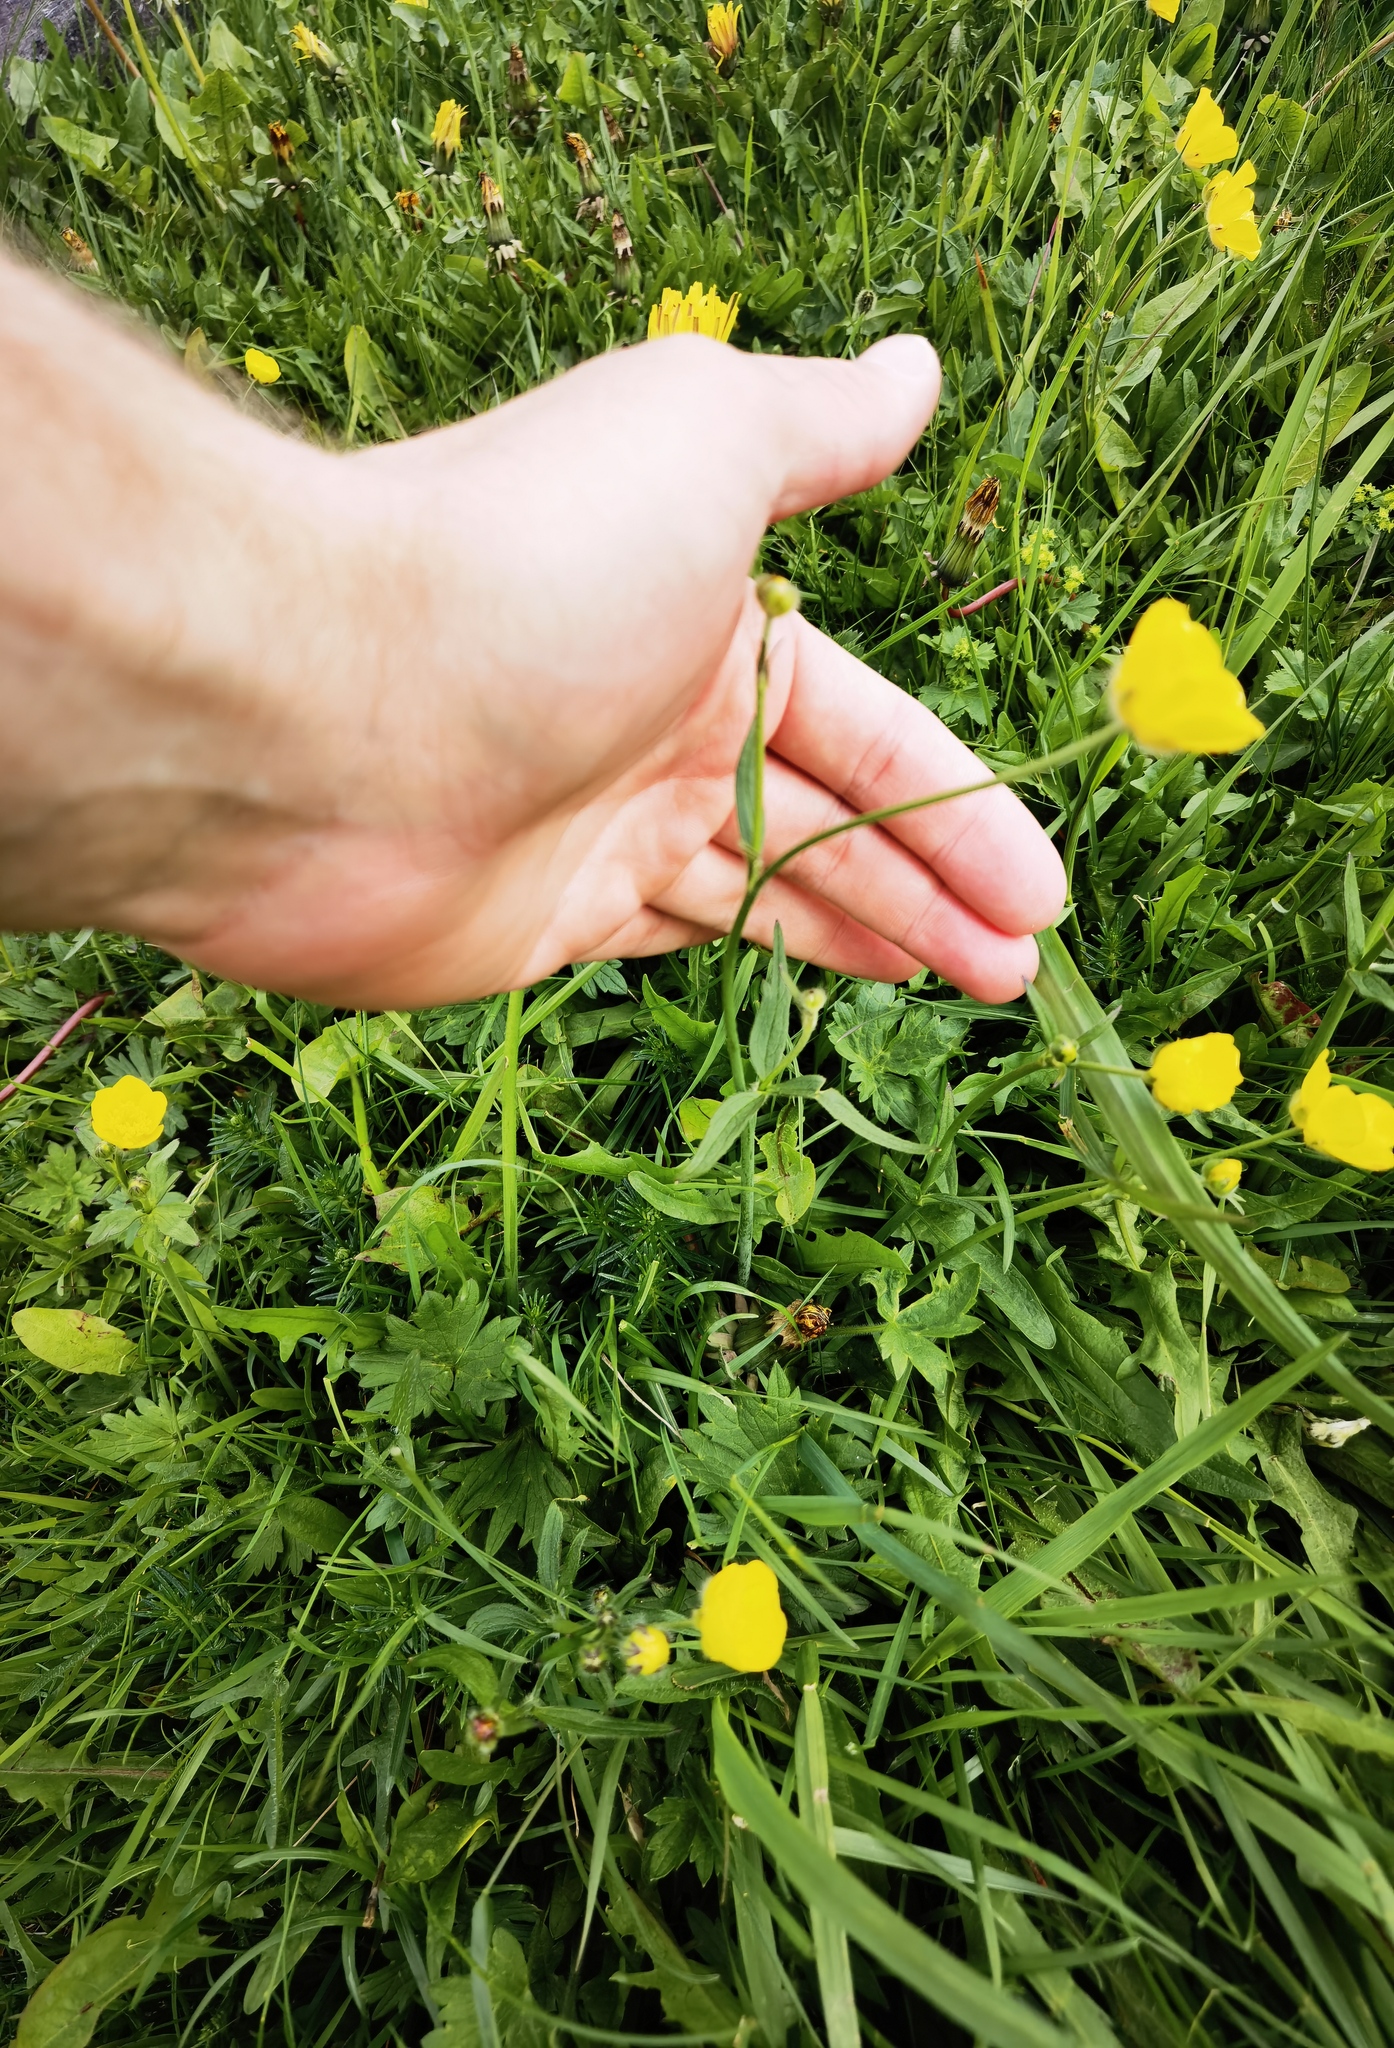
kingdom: Plantae
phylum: Tracheophyta
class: Magnoliopsida
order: Ranunculales
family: Ranunculaceae
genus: Ranunculus
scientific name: Ranunculus acris
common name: Meadow buttercup
